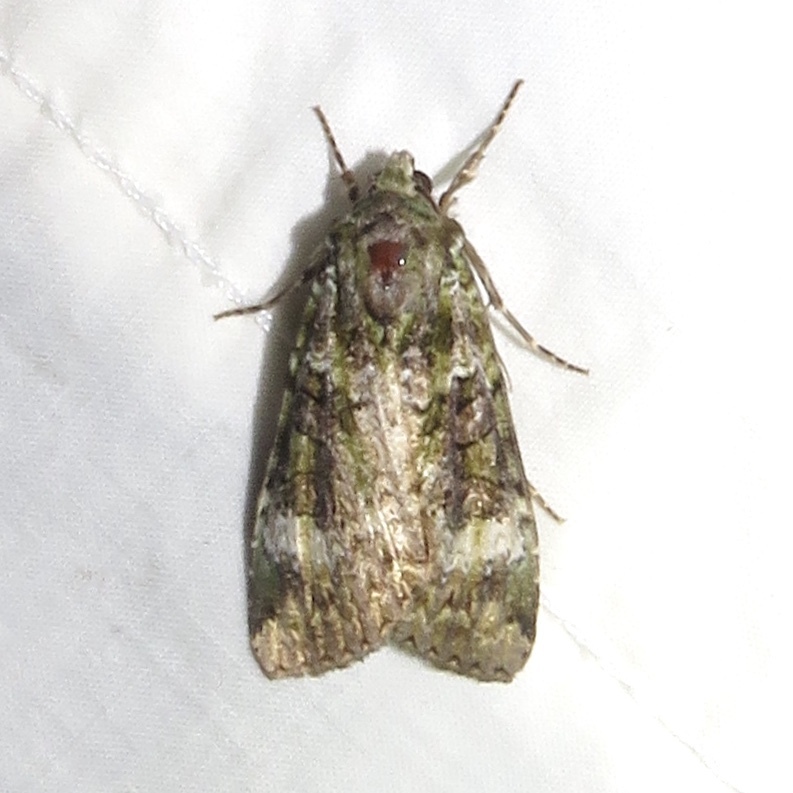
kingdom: Animalia
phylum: Arthropoda
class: Insecta
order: Lepidoptera
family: Noctuidae
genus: Anaplectoides
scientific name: Anaplectoides prasina
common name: Green arches
